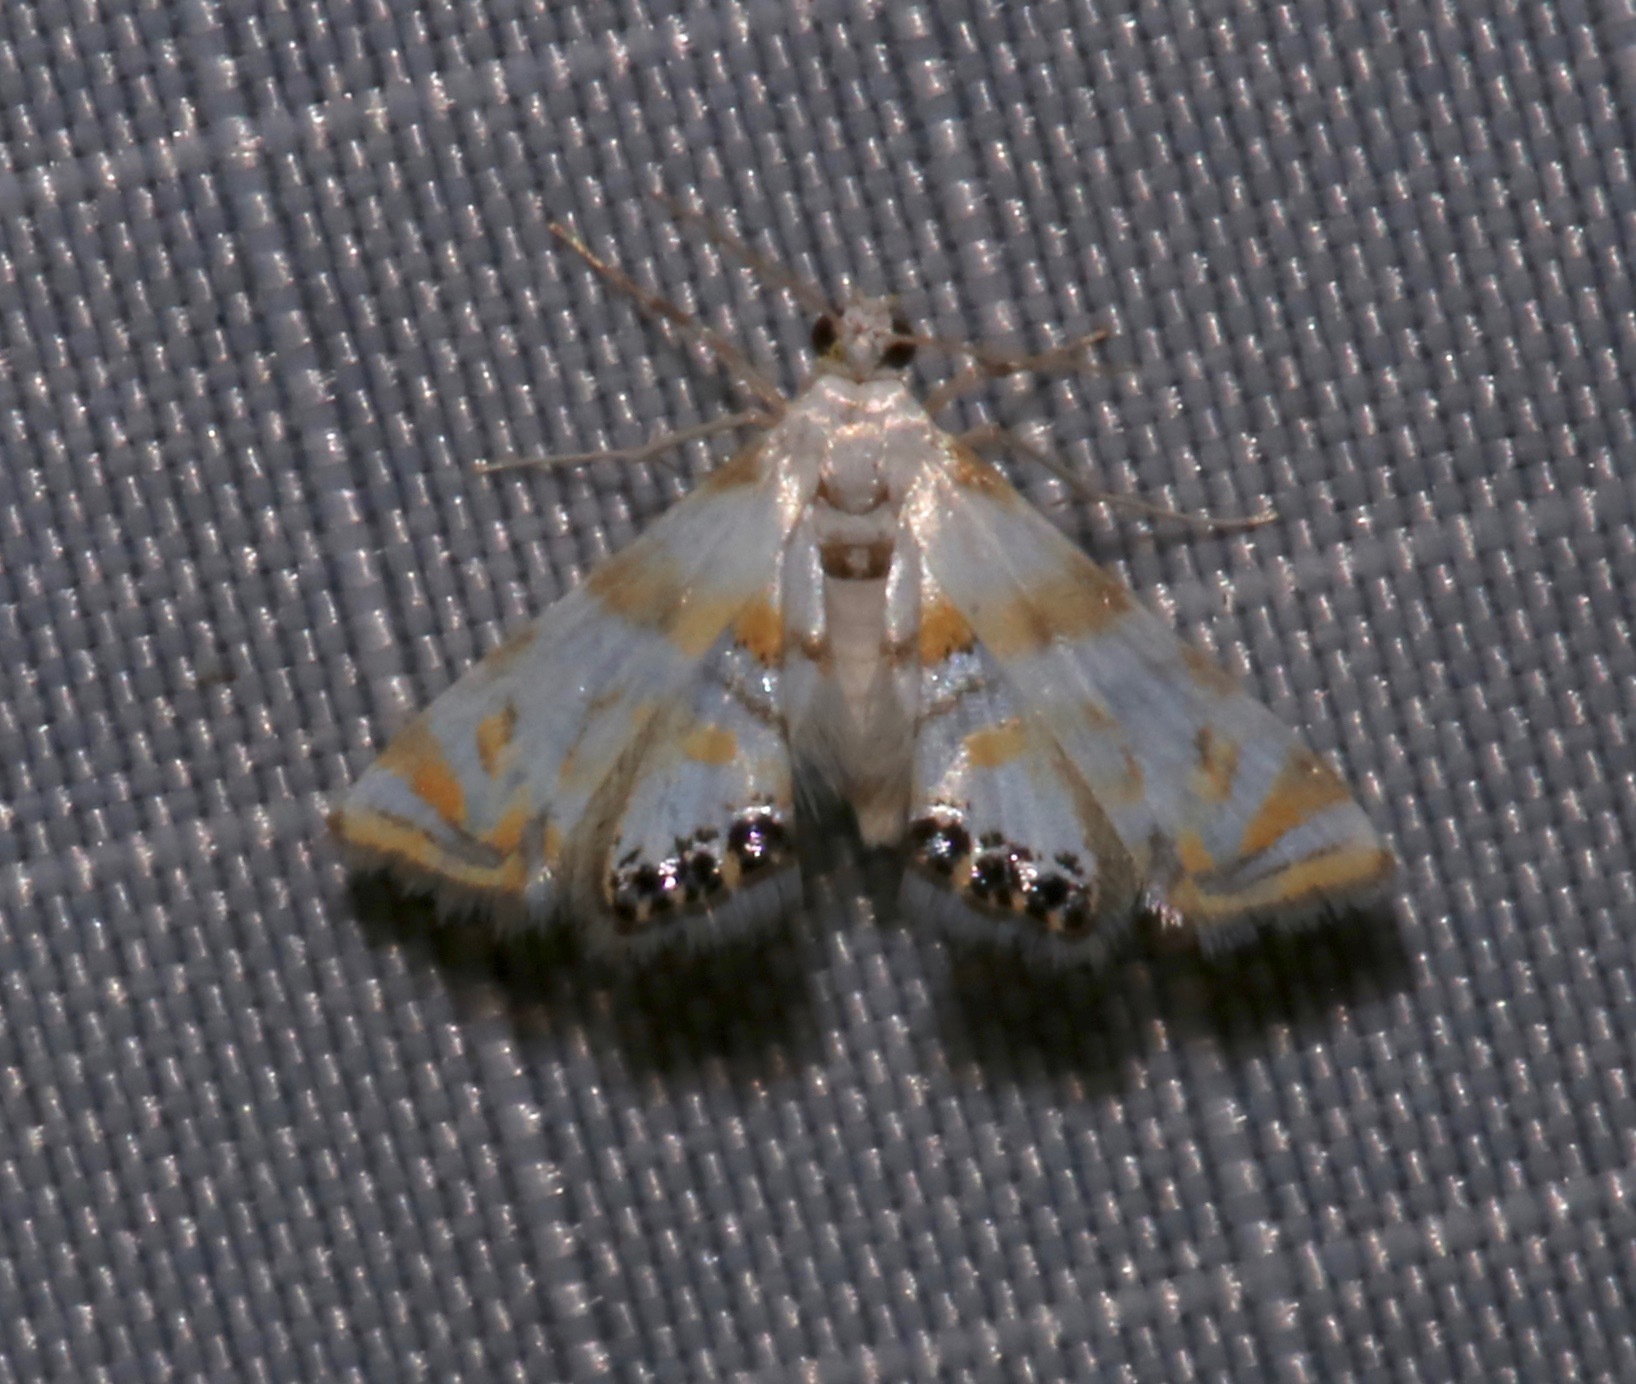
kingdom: Animalia
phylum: Arthropoda
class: Insecta
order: Lepidoptera
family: Crambidae
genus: Argyractis
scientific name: Argyractis drumalis
